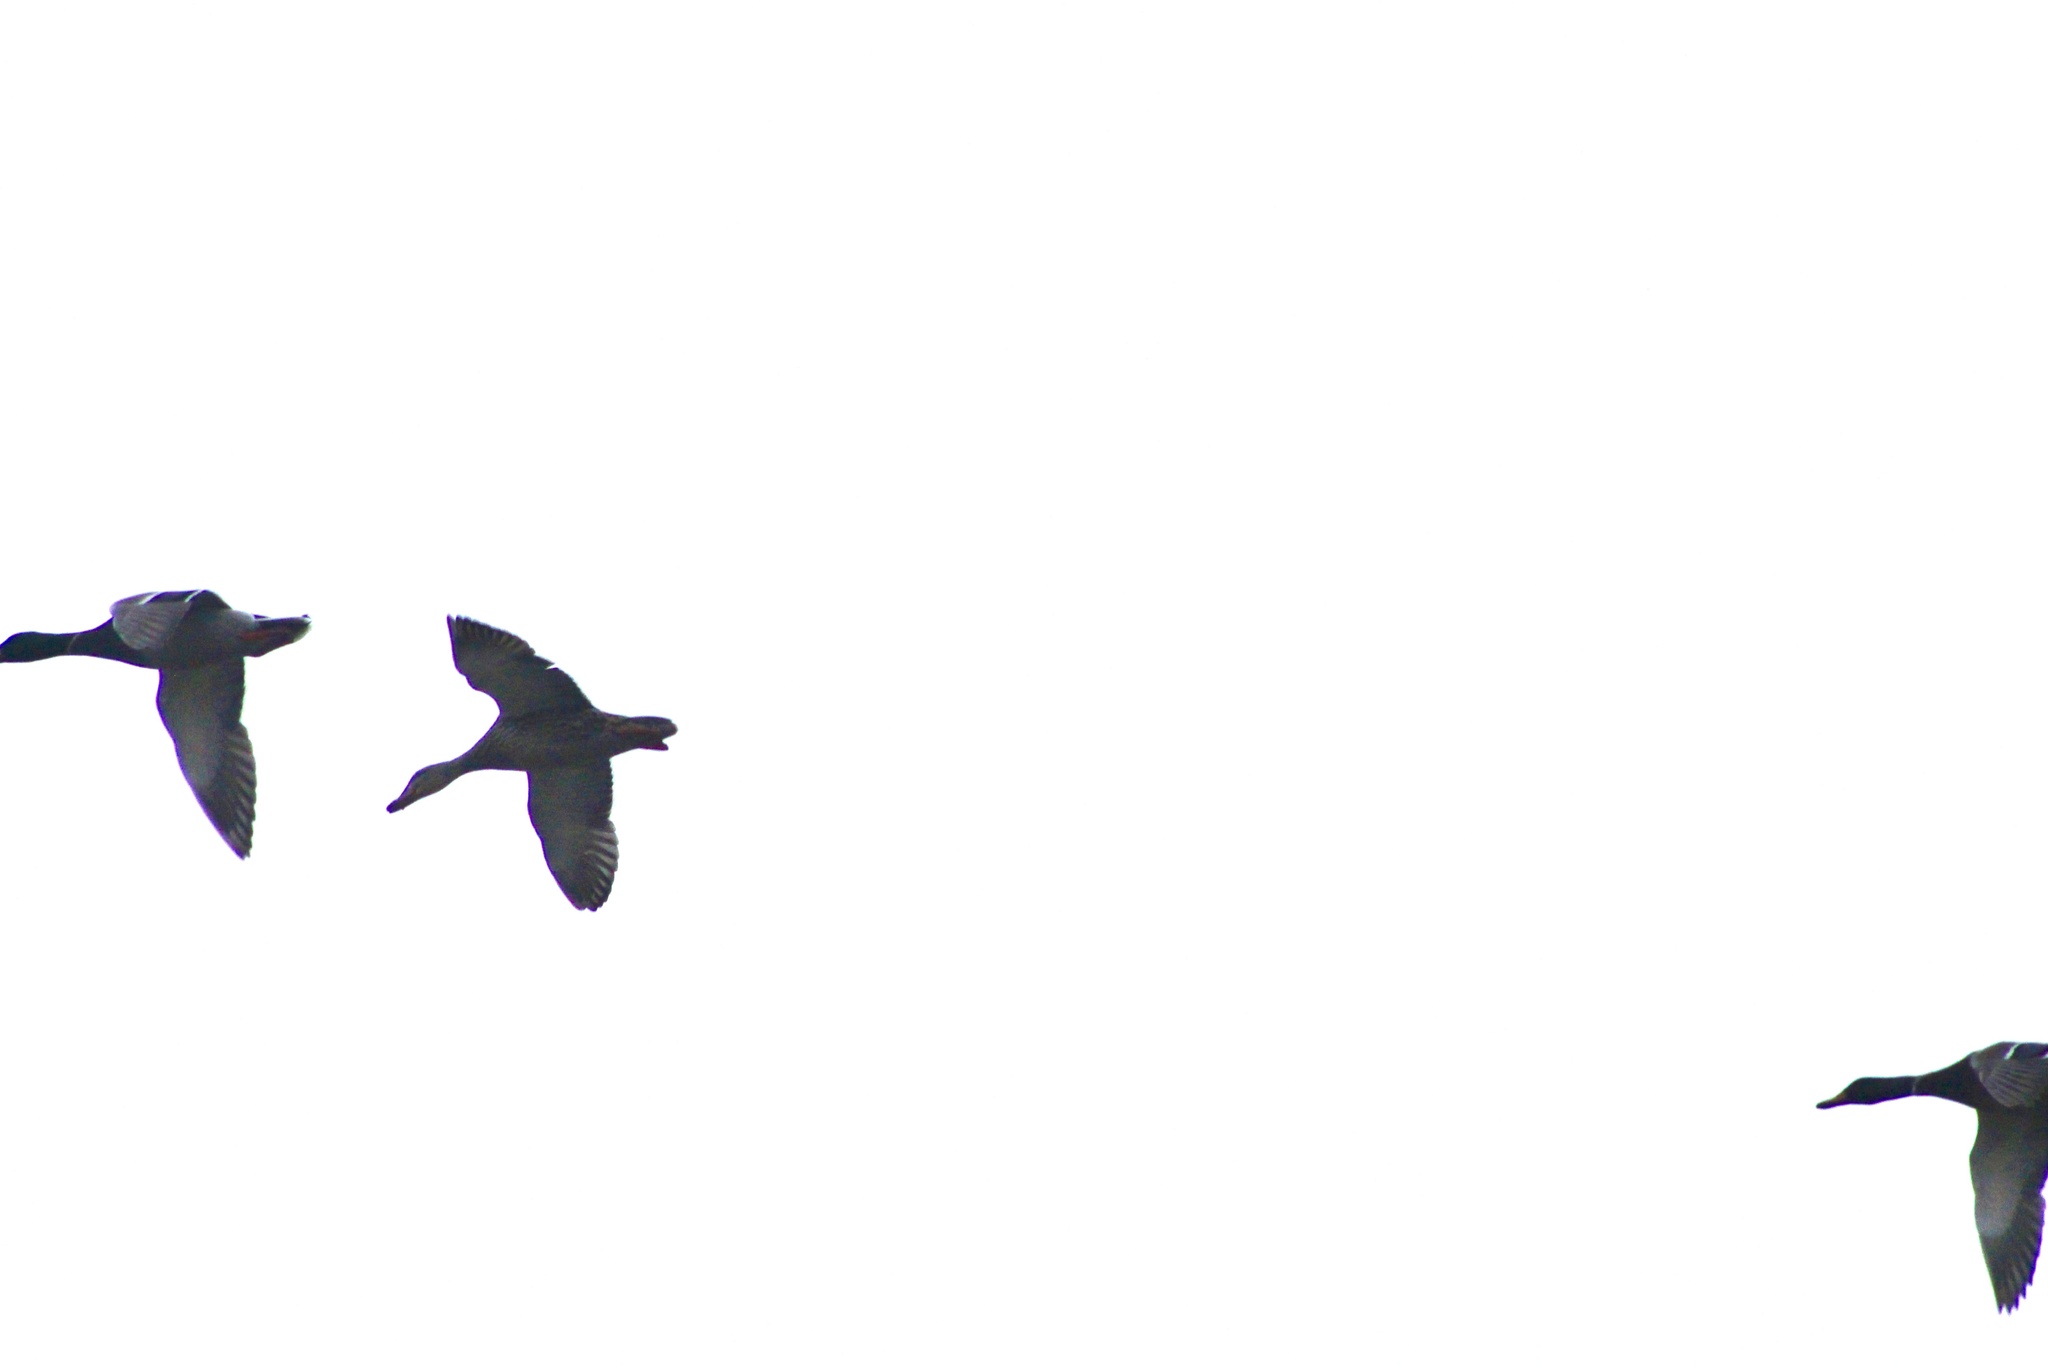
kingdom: Animalia
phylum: Chordata
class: Aves
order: Anseriformes
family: Anatidae
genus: Anas
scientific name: Anas platyrhynchos
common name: Mallard
